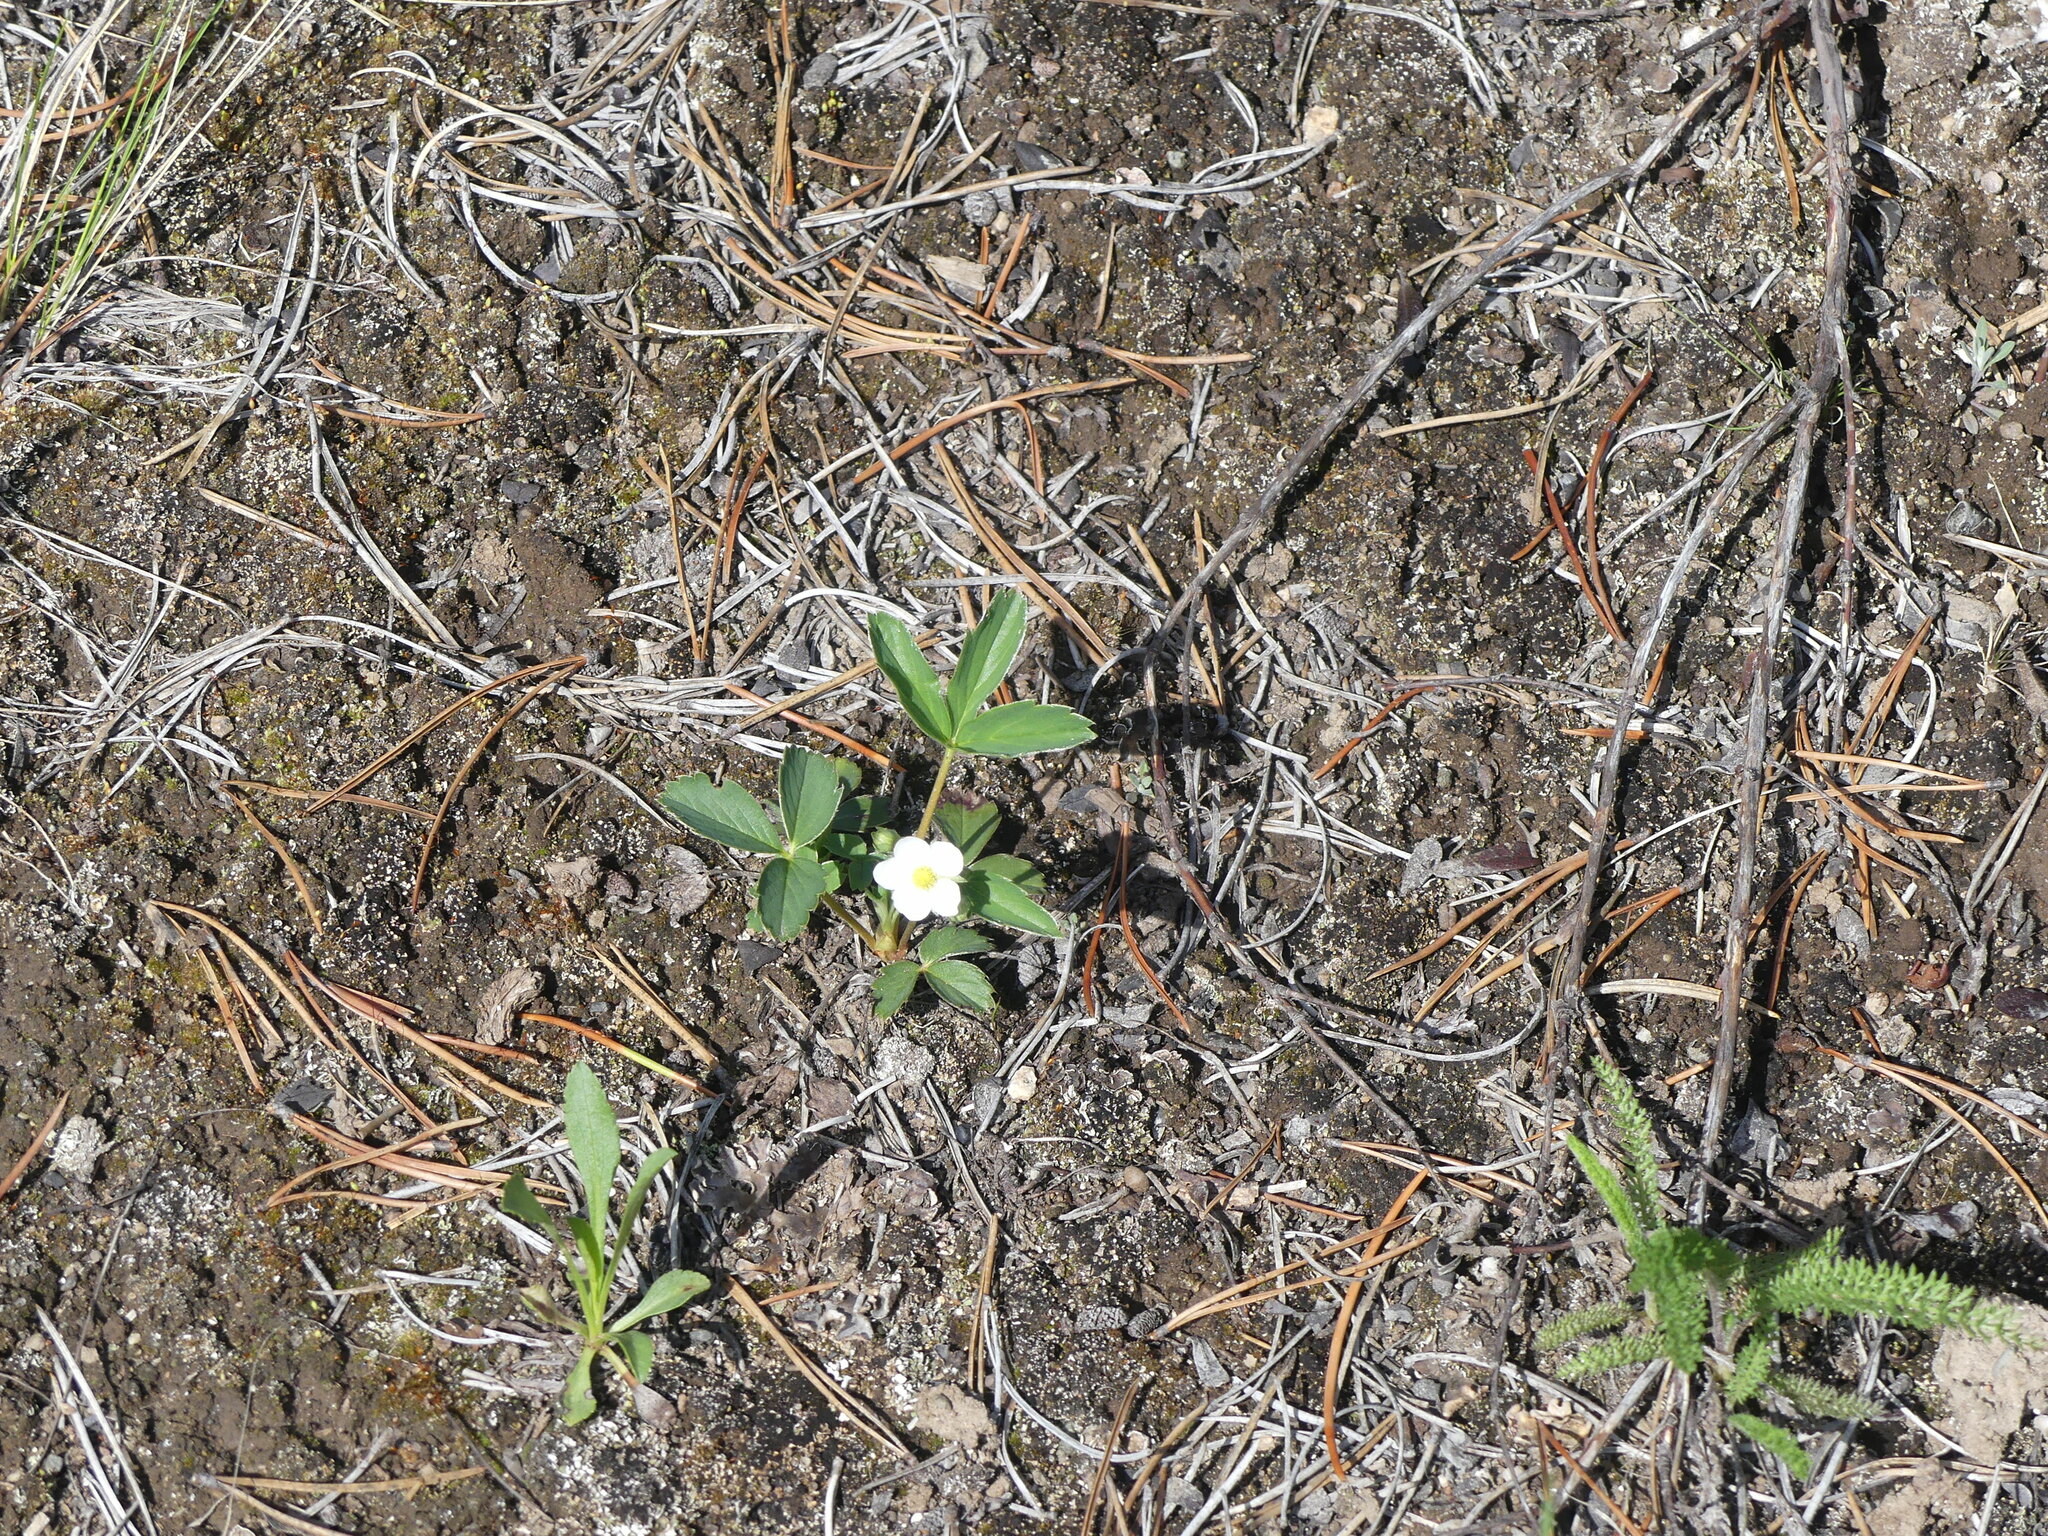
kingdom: Plantae
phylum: Tracheophyta
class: Magnoliopsida
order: Rosales
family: Rosaceae
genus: Fragaria
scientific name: Fragaria virginiana
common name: Thickleaved wild strawberry
